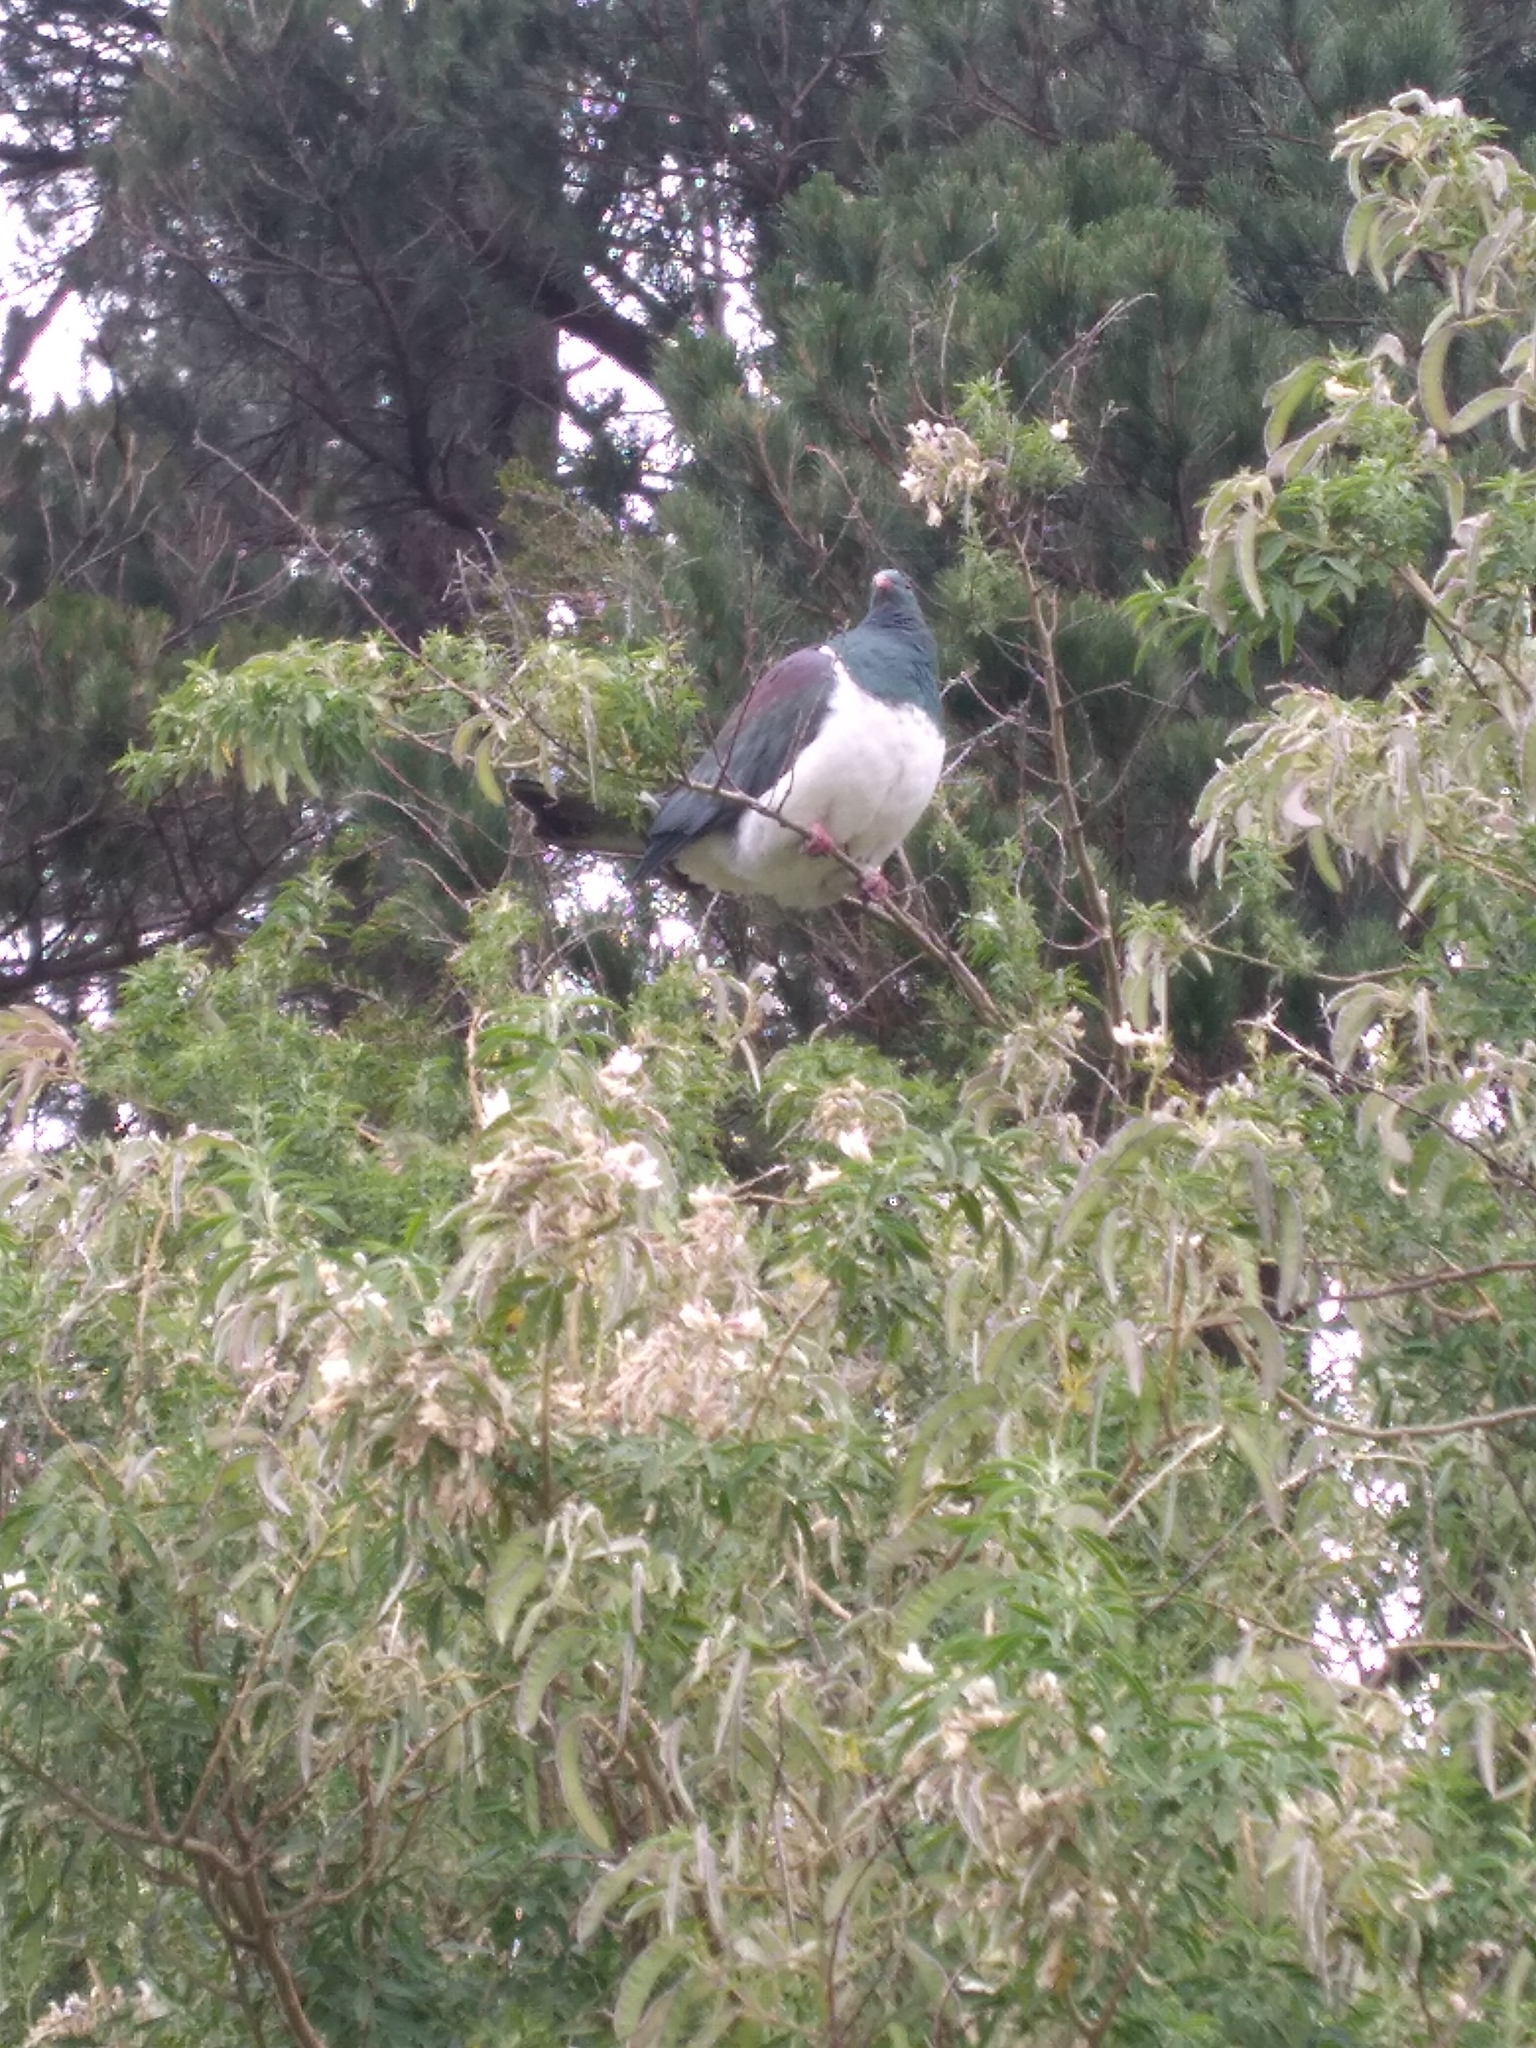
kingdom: Animalia
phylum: Chordata
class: Aves
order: Columbiformes
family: Columbidae
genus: Hemiphaga
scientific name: Hemiphaga novaeseelandiae
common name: New zealand pigeon
